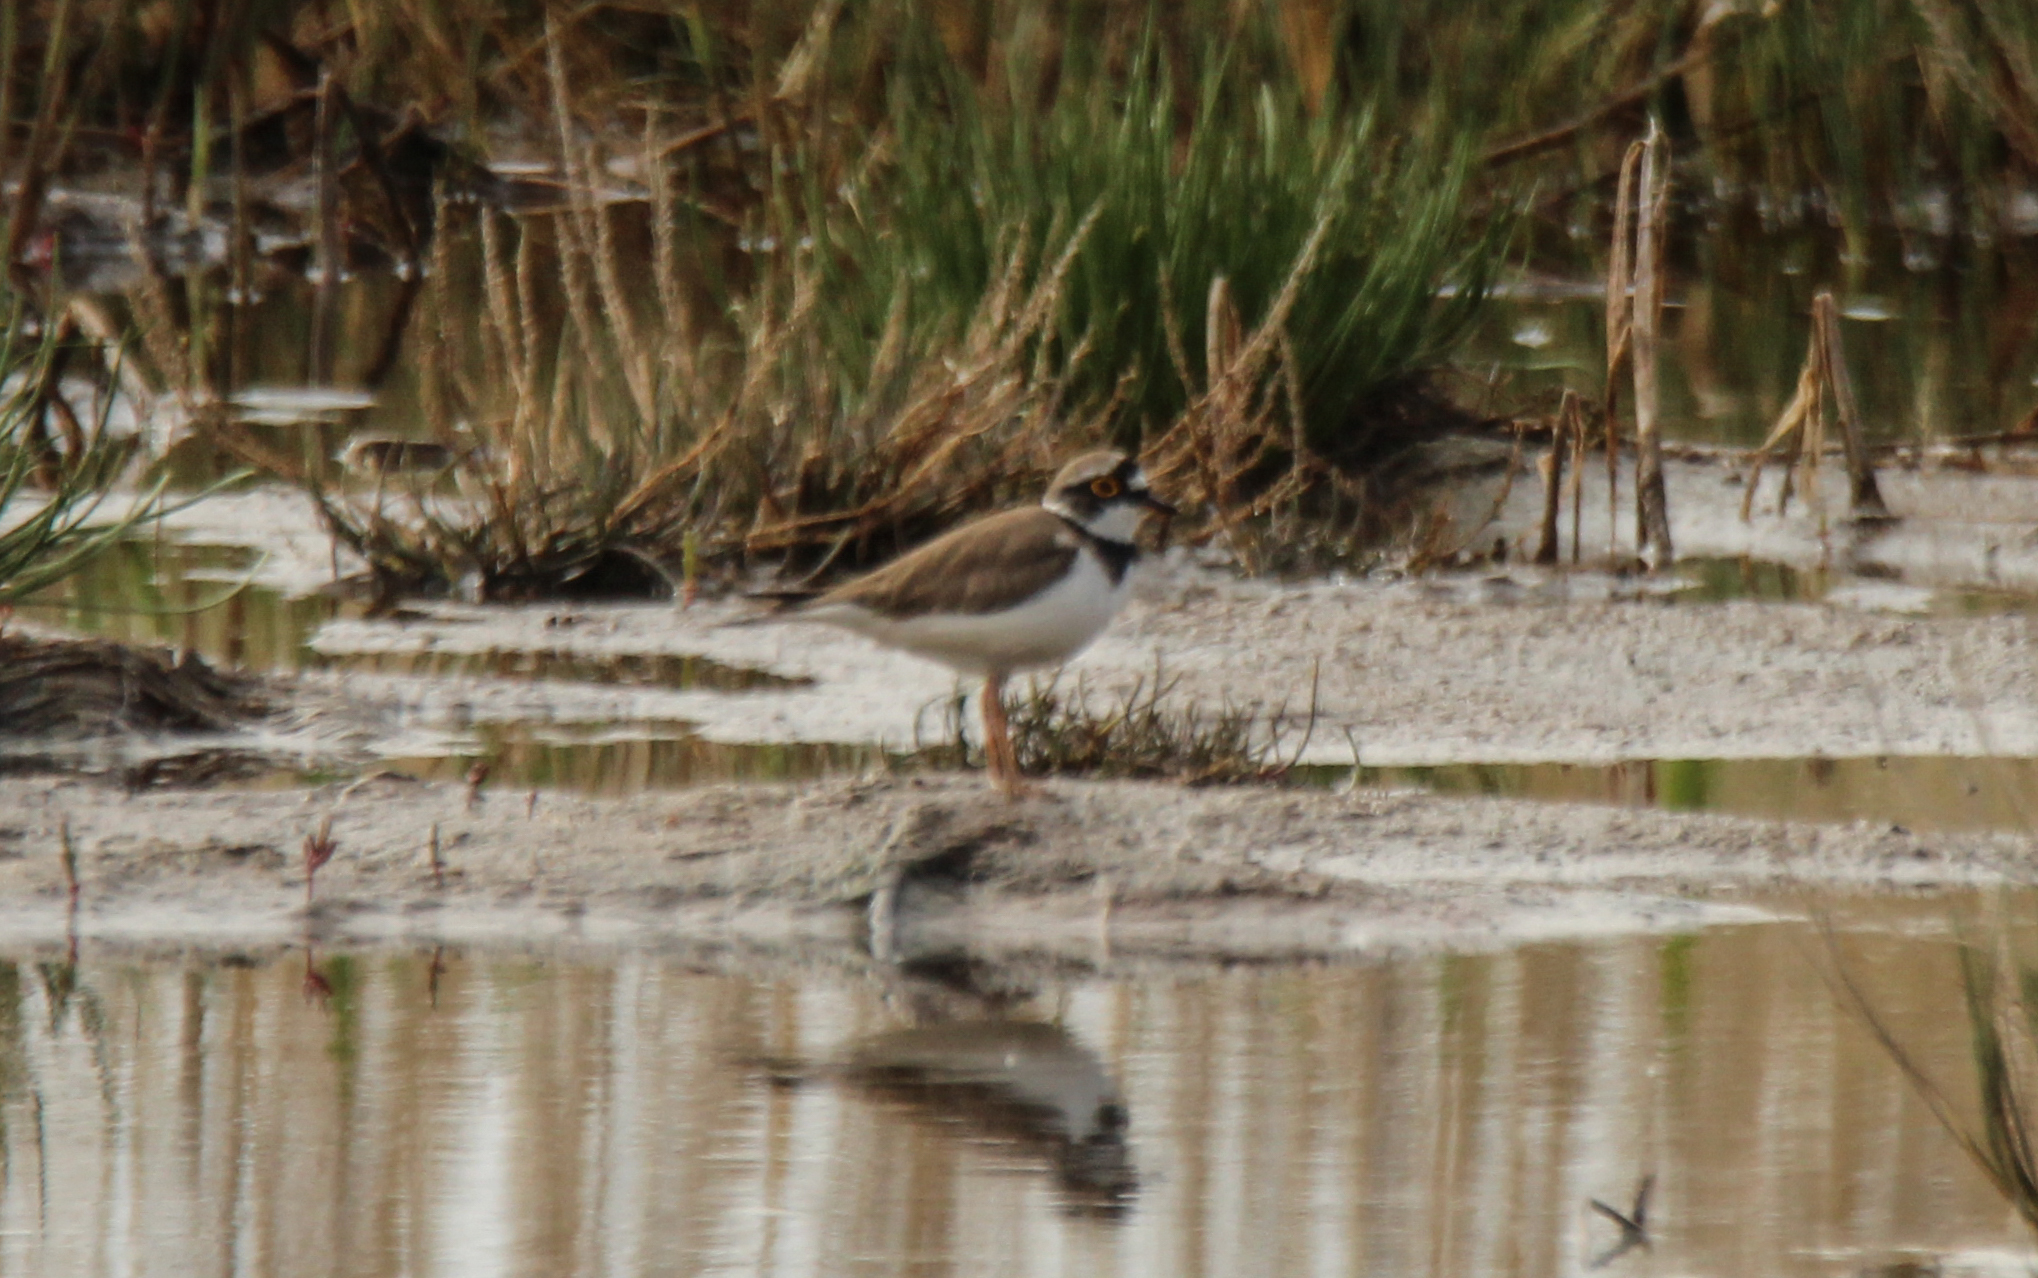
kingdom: Animalia
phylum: Chordata
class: Aves
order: Charadriiformes
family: Charadriidae
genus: Charadrius
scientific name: Charadrius dubius
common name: Little ringed plover
